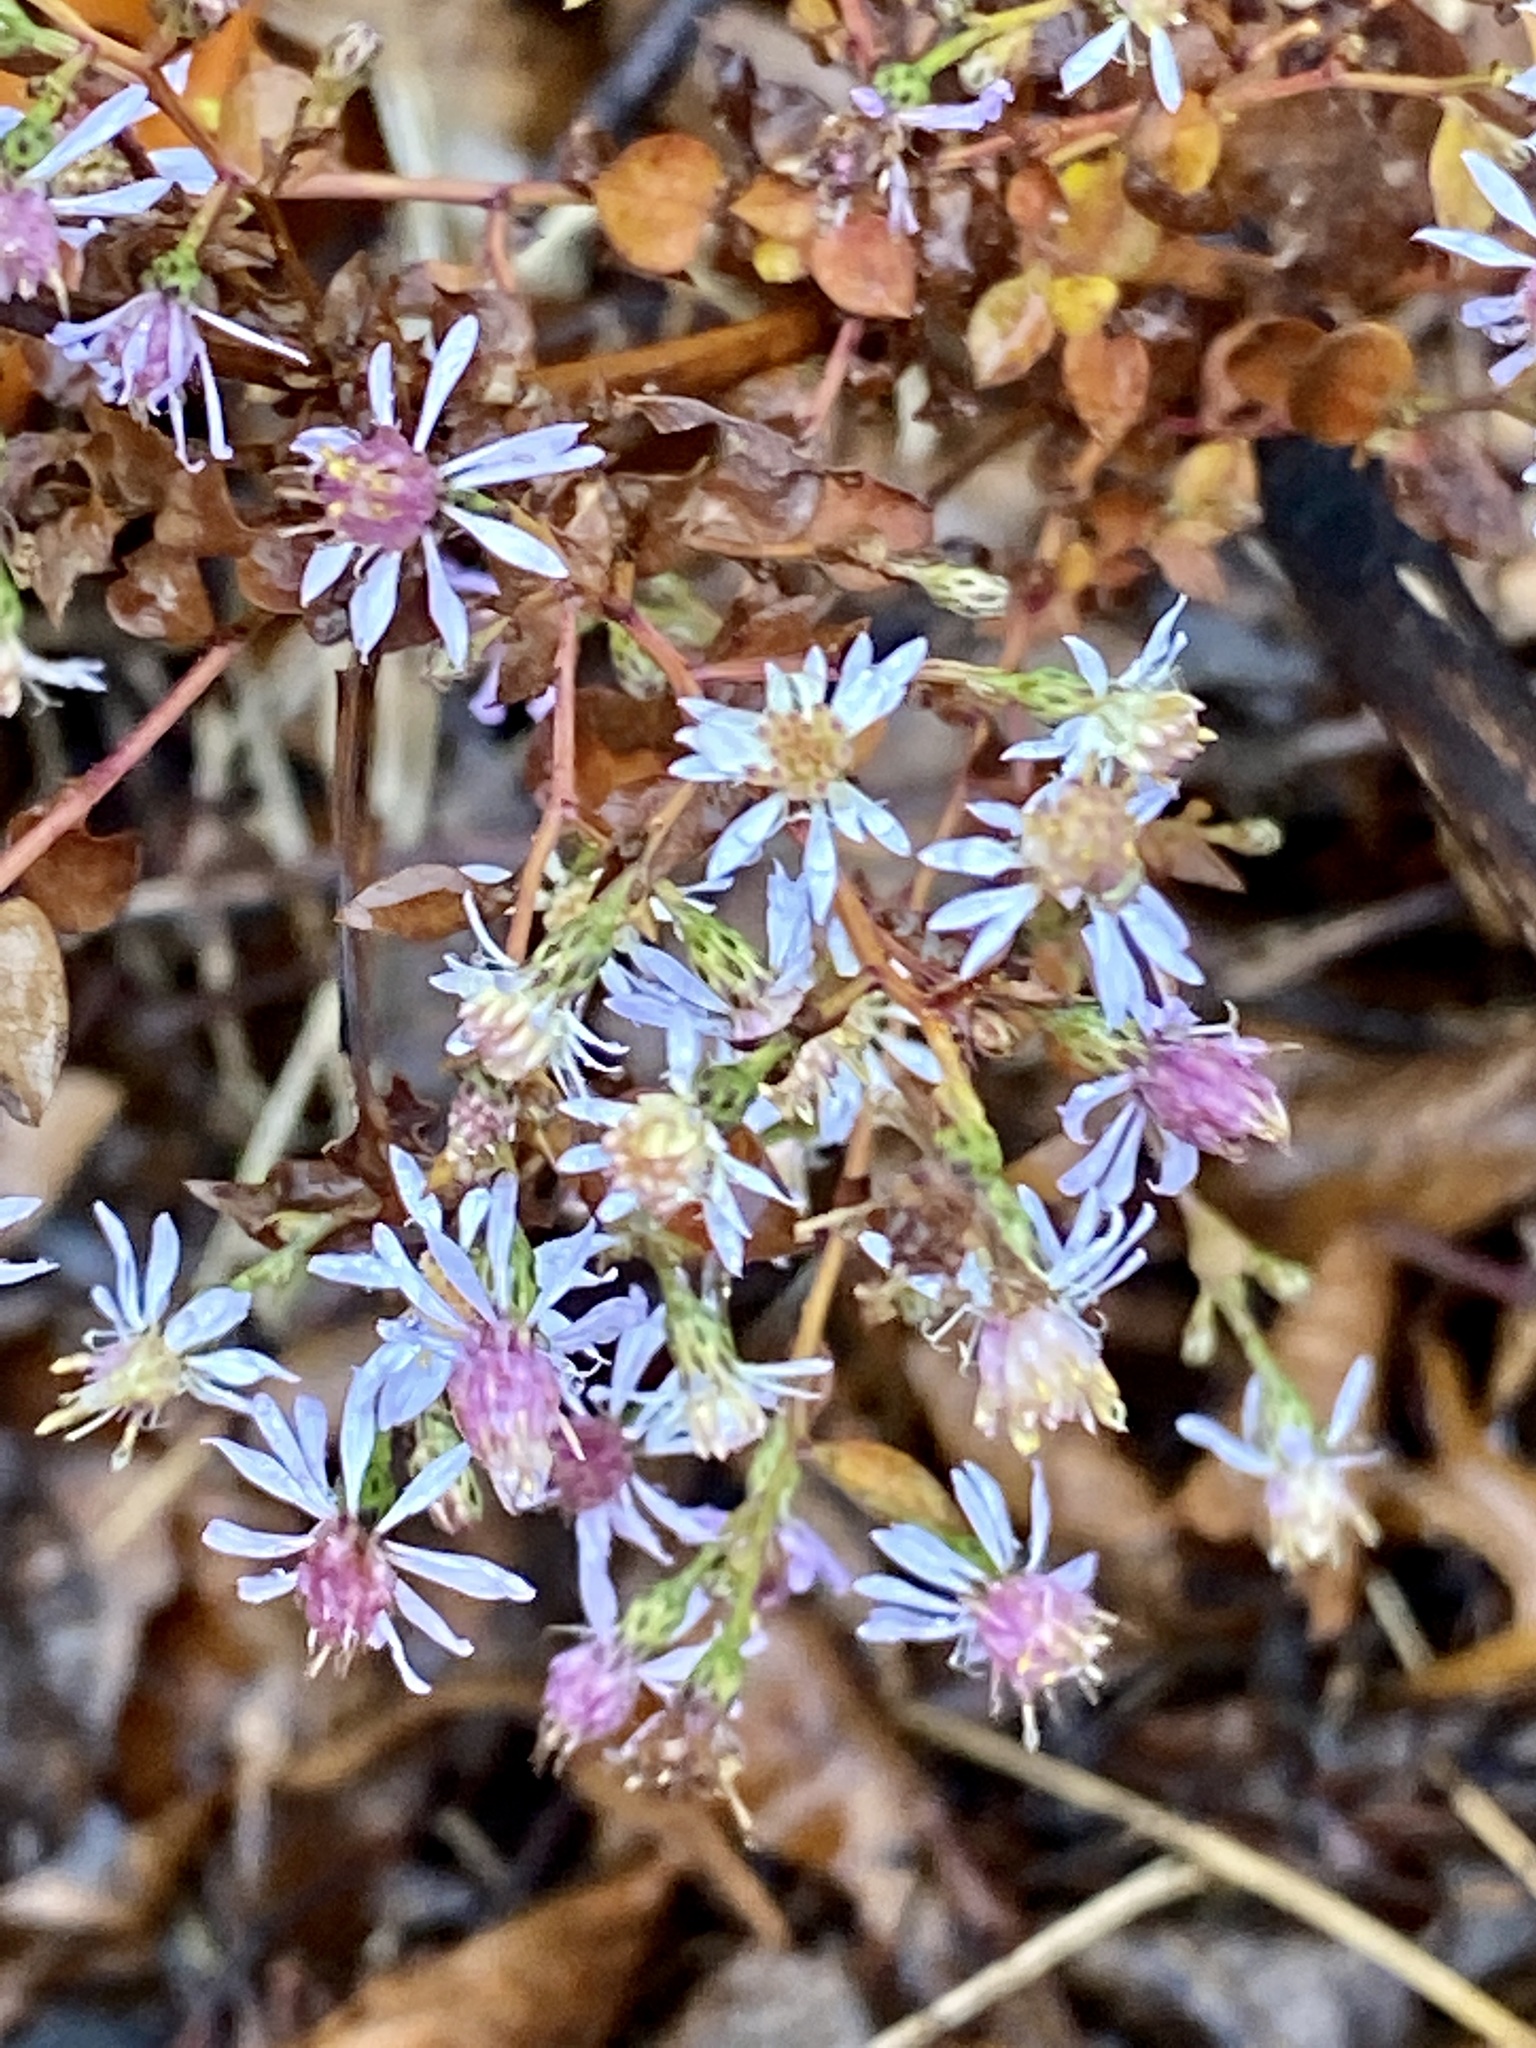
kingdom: Plantae
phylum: Tracheophyta
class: Magnoliopsida
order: Asterales
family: Asteraceae
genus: Symphyotrichum
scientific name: Symphyotrichum cordifolium
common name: Beeweed
